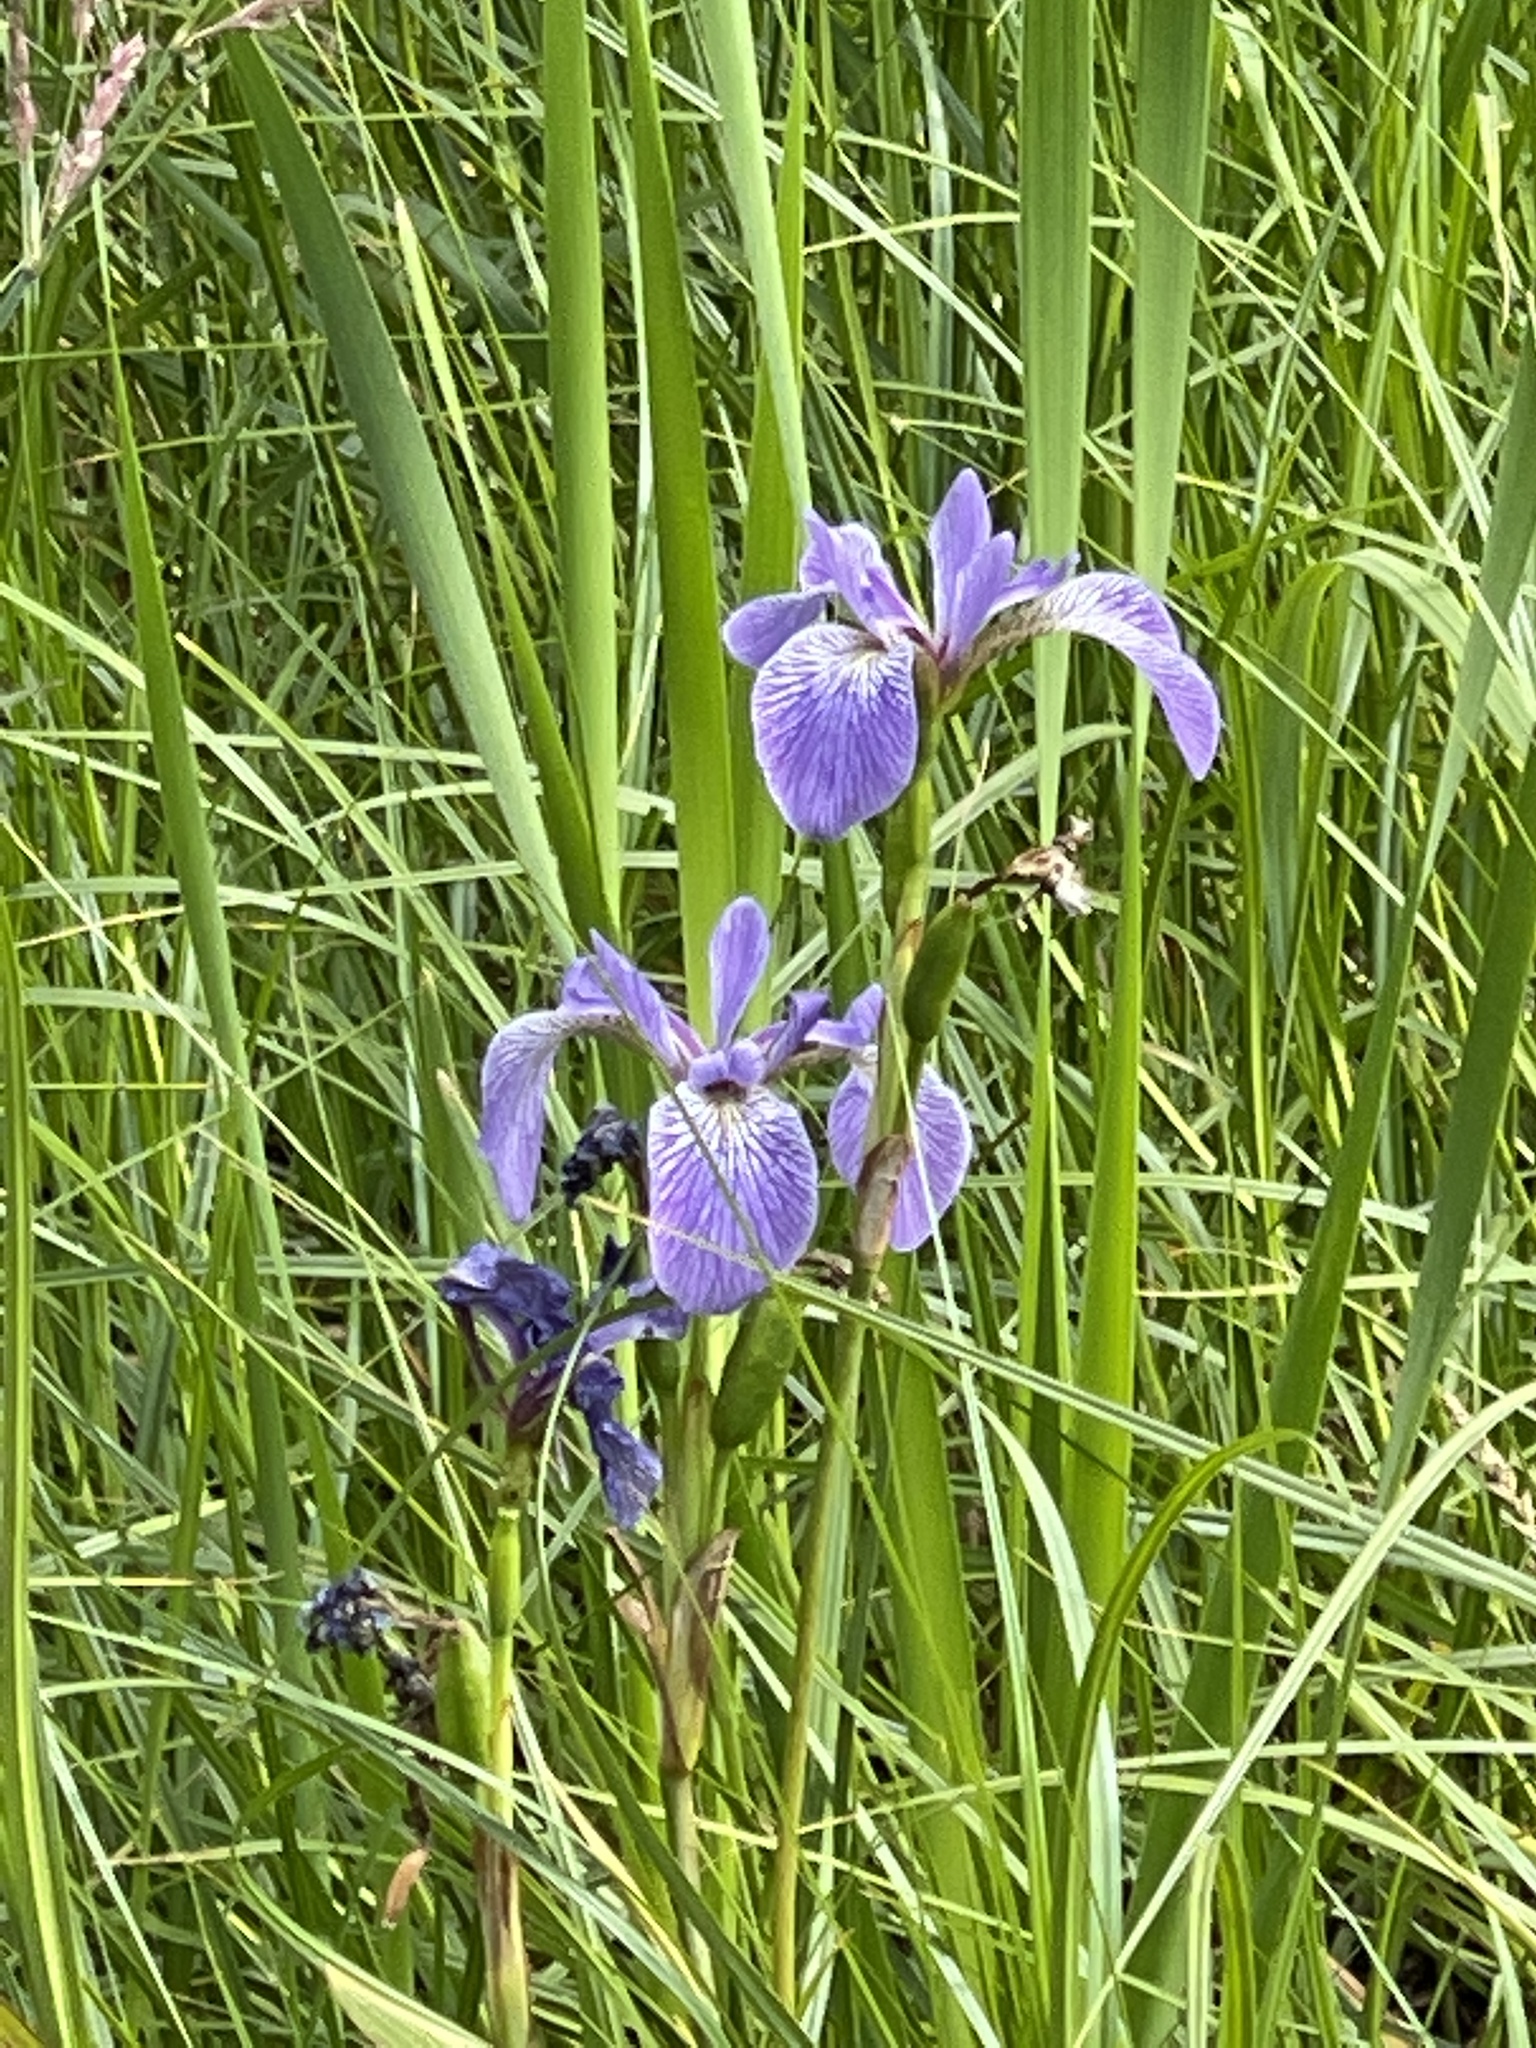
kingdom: Plantae
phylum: Tracheophyta
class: Liliopsida
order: Asparagales
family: Iridaceae
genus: Iris
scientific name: Iris versicolor
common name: Purple iris
